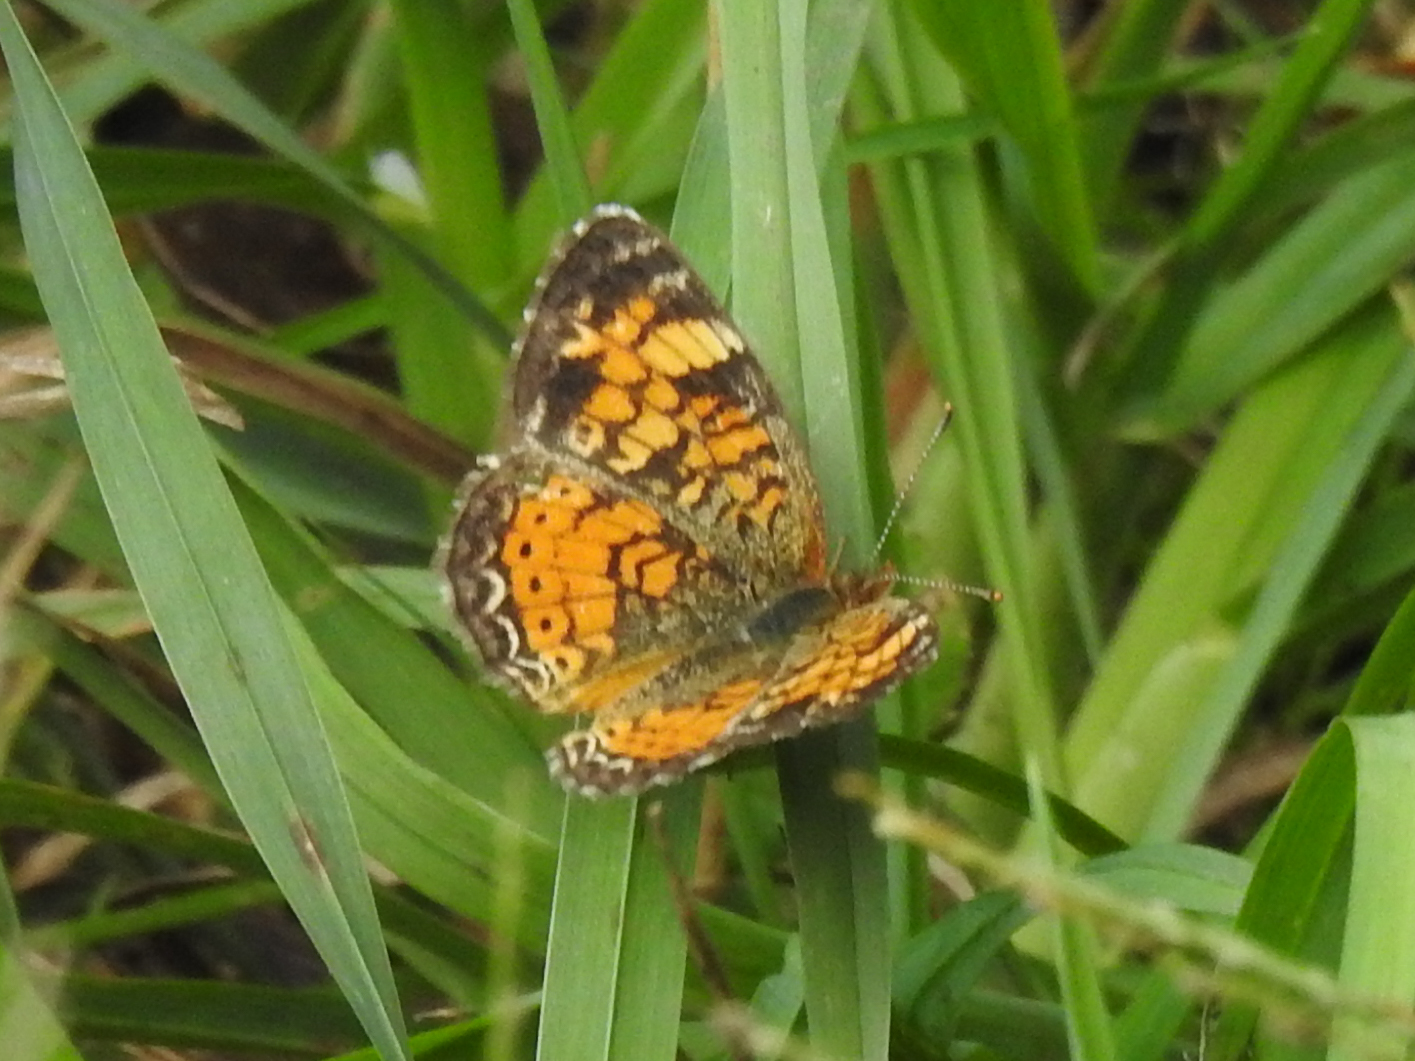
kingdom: Animalia
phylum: Arthropoda
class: Insecta
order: Lepidoptera
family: Nymphalidae
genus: Phyciodes
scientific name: Phyciodes tharos
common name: Pearl crescent
